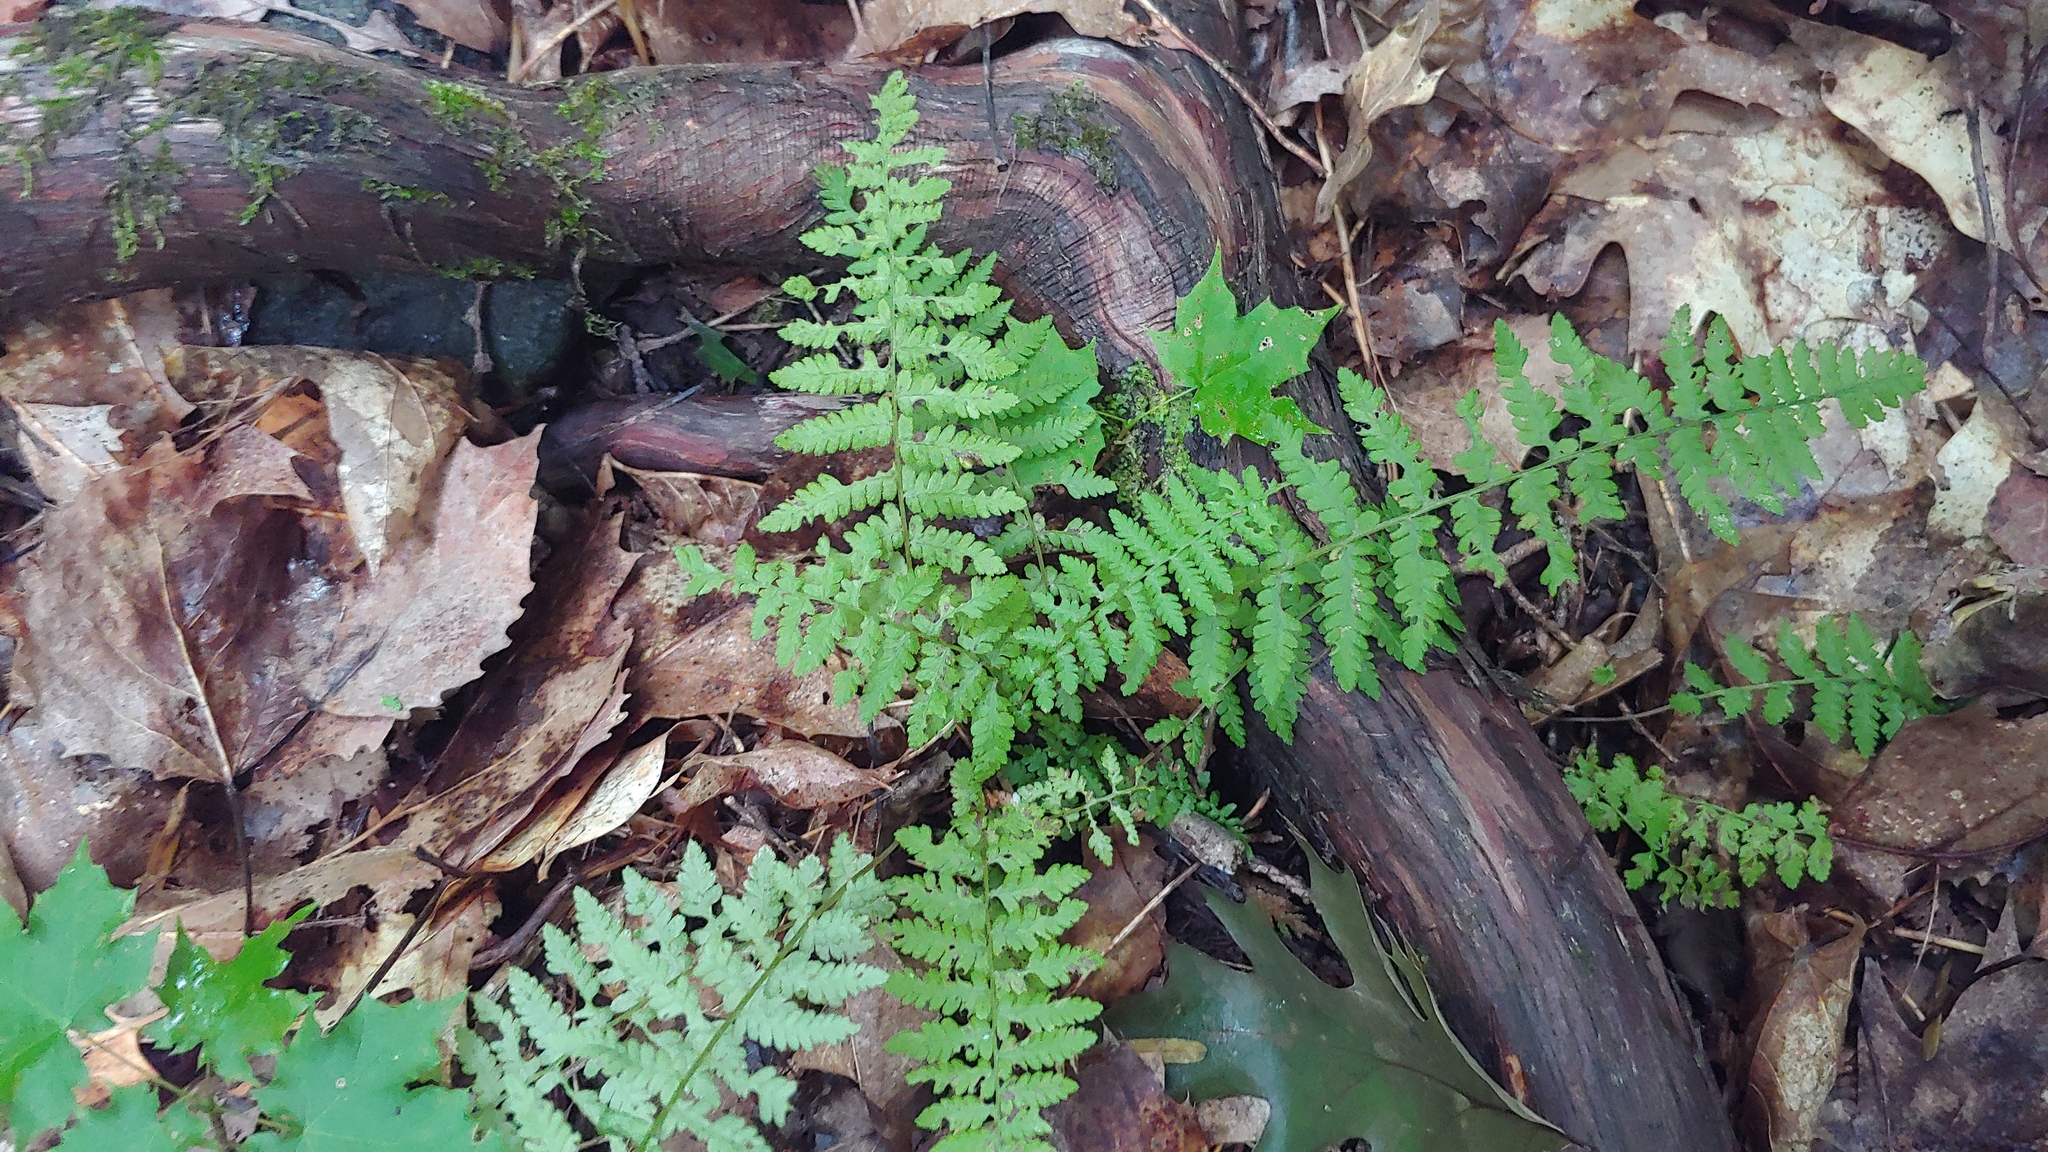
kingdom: Plantae
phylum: Tracheophyta
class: Polypodiopsida
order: Polypodiales
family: Athyriaceae
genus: Athyrium
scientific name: Athyrium angustum
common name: Northern lady fern
